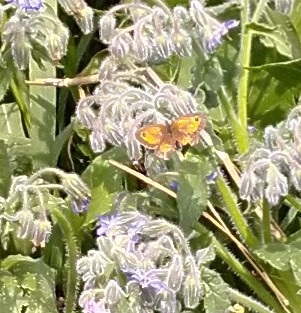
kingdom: Animalia
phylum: Arthropoda
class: Insecta
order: Lepidoptera
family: Nymphalidae
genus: Pyronia
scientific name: Pyronia tithonus
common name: Gatekeeper
